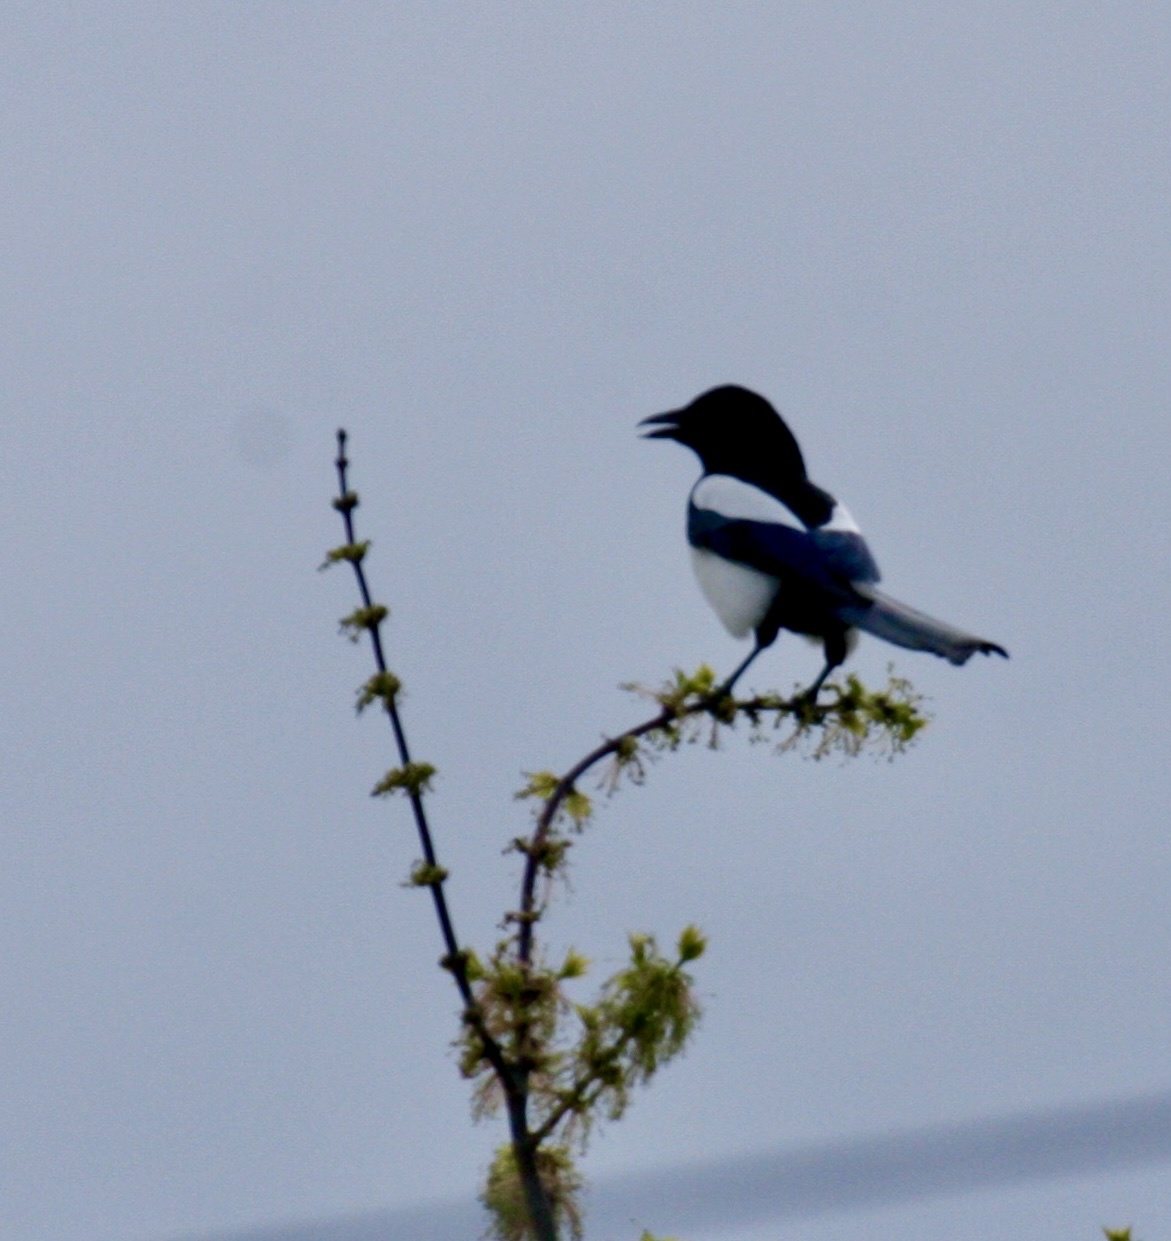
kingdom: Animalia
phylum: Chordata
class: Aves
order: Passeriformes
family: Corvidae
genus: Pica
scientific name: Pica pica
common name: Eurasian magpie
